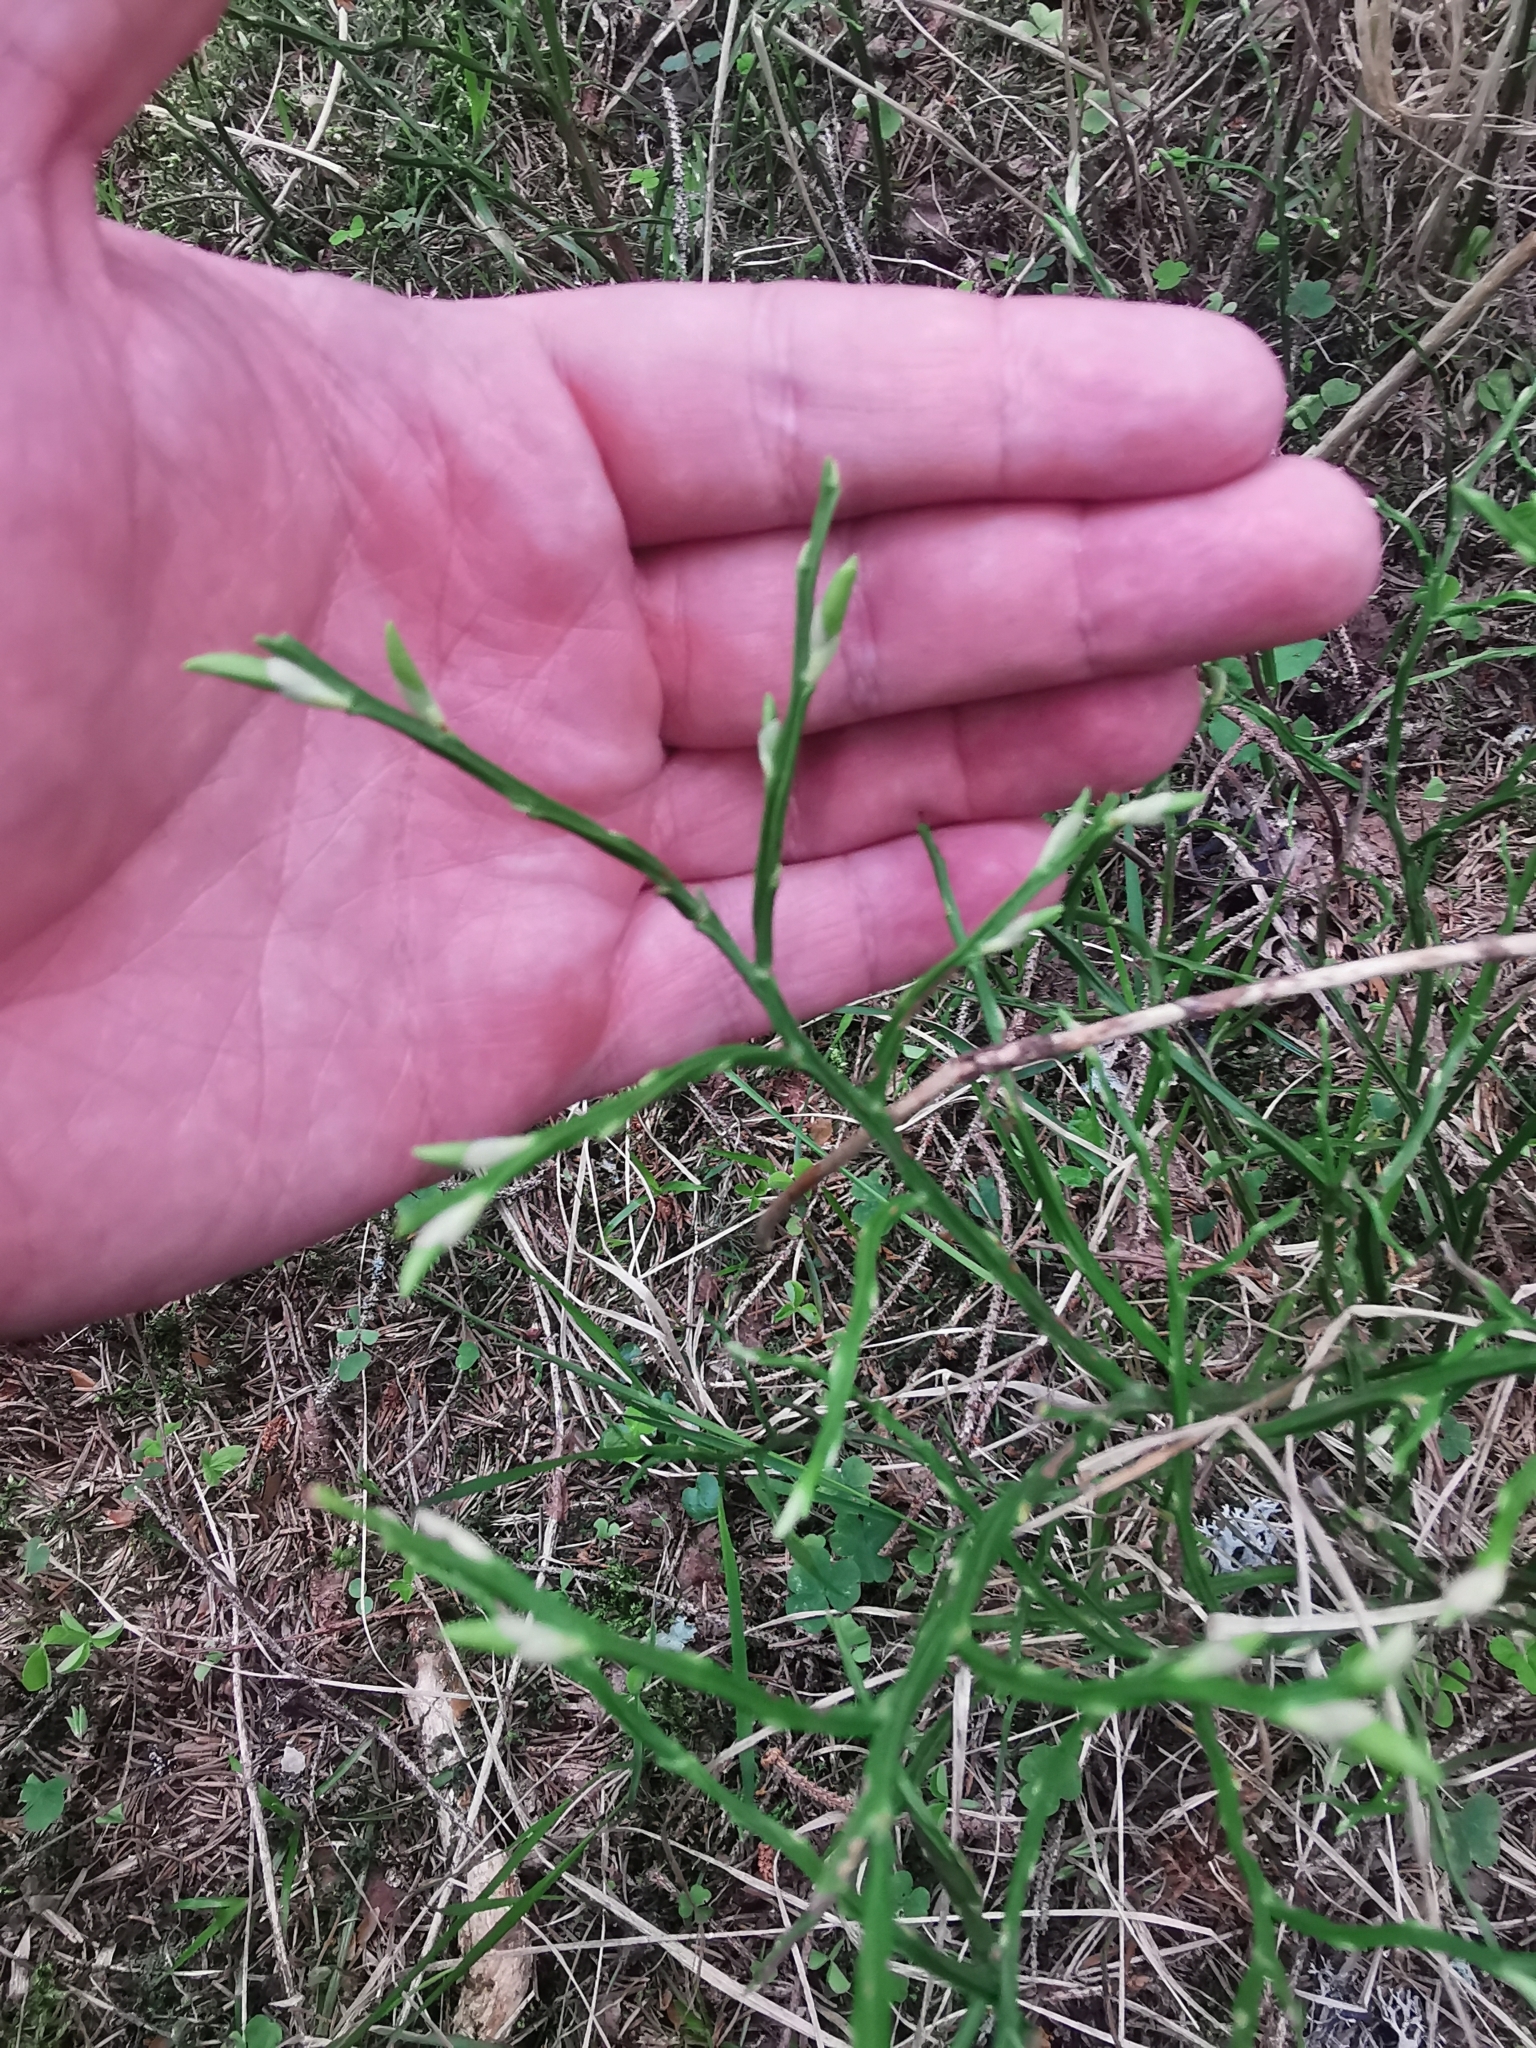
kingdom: Plantae
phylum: Tracheophyta
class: Magnoliopsida
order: Ericales
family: Ericaceae
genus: Vaccinium
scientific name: Vaccinium myrtillus
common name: Bilberry
